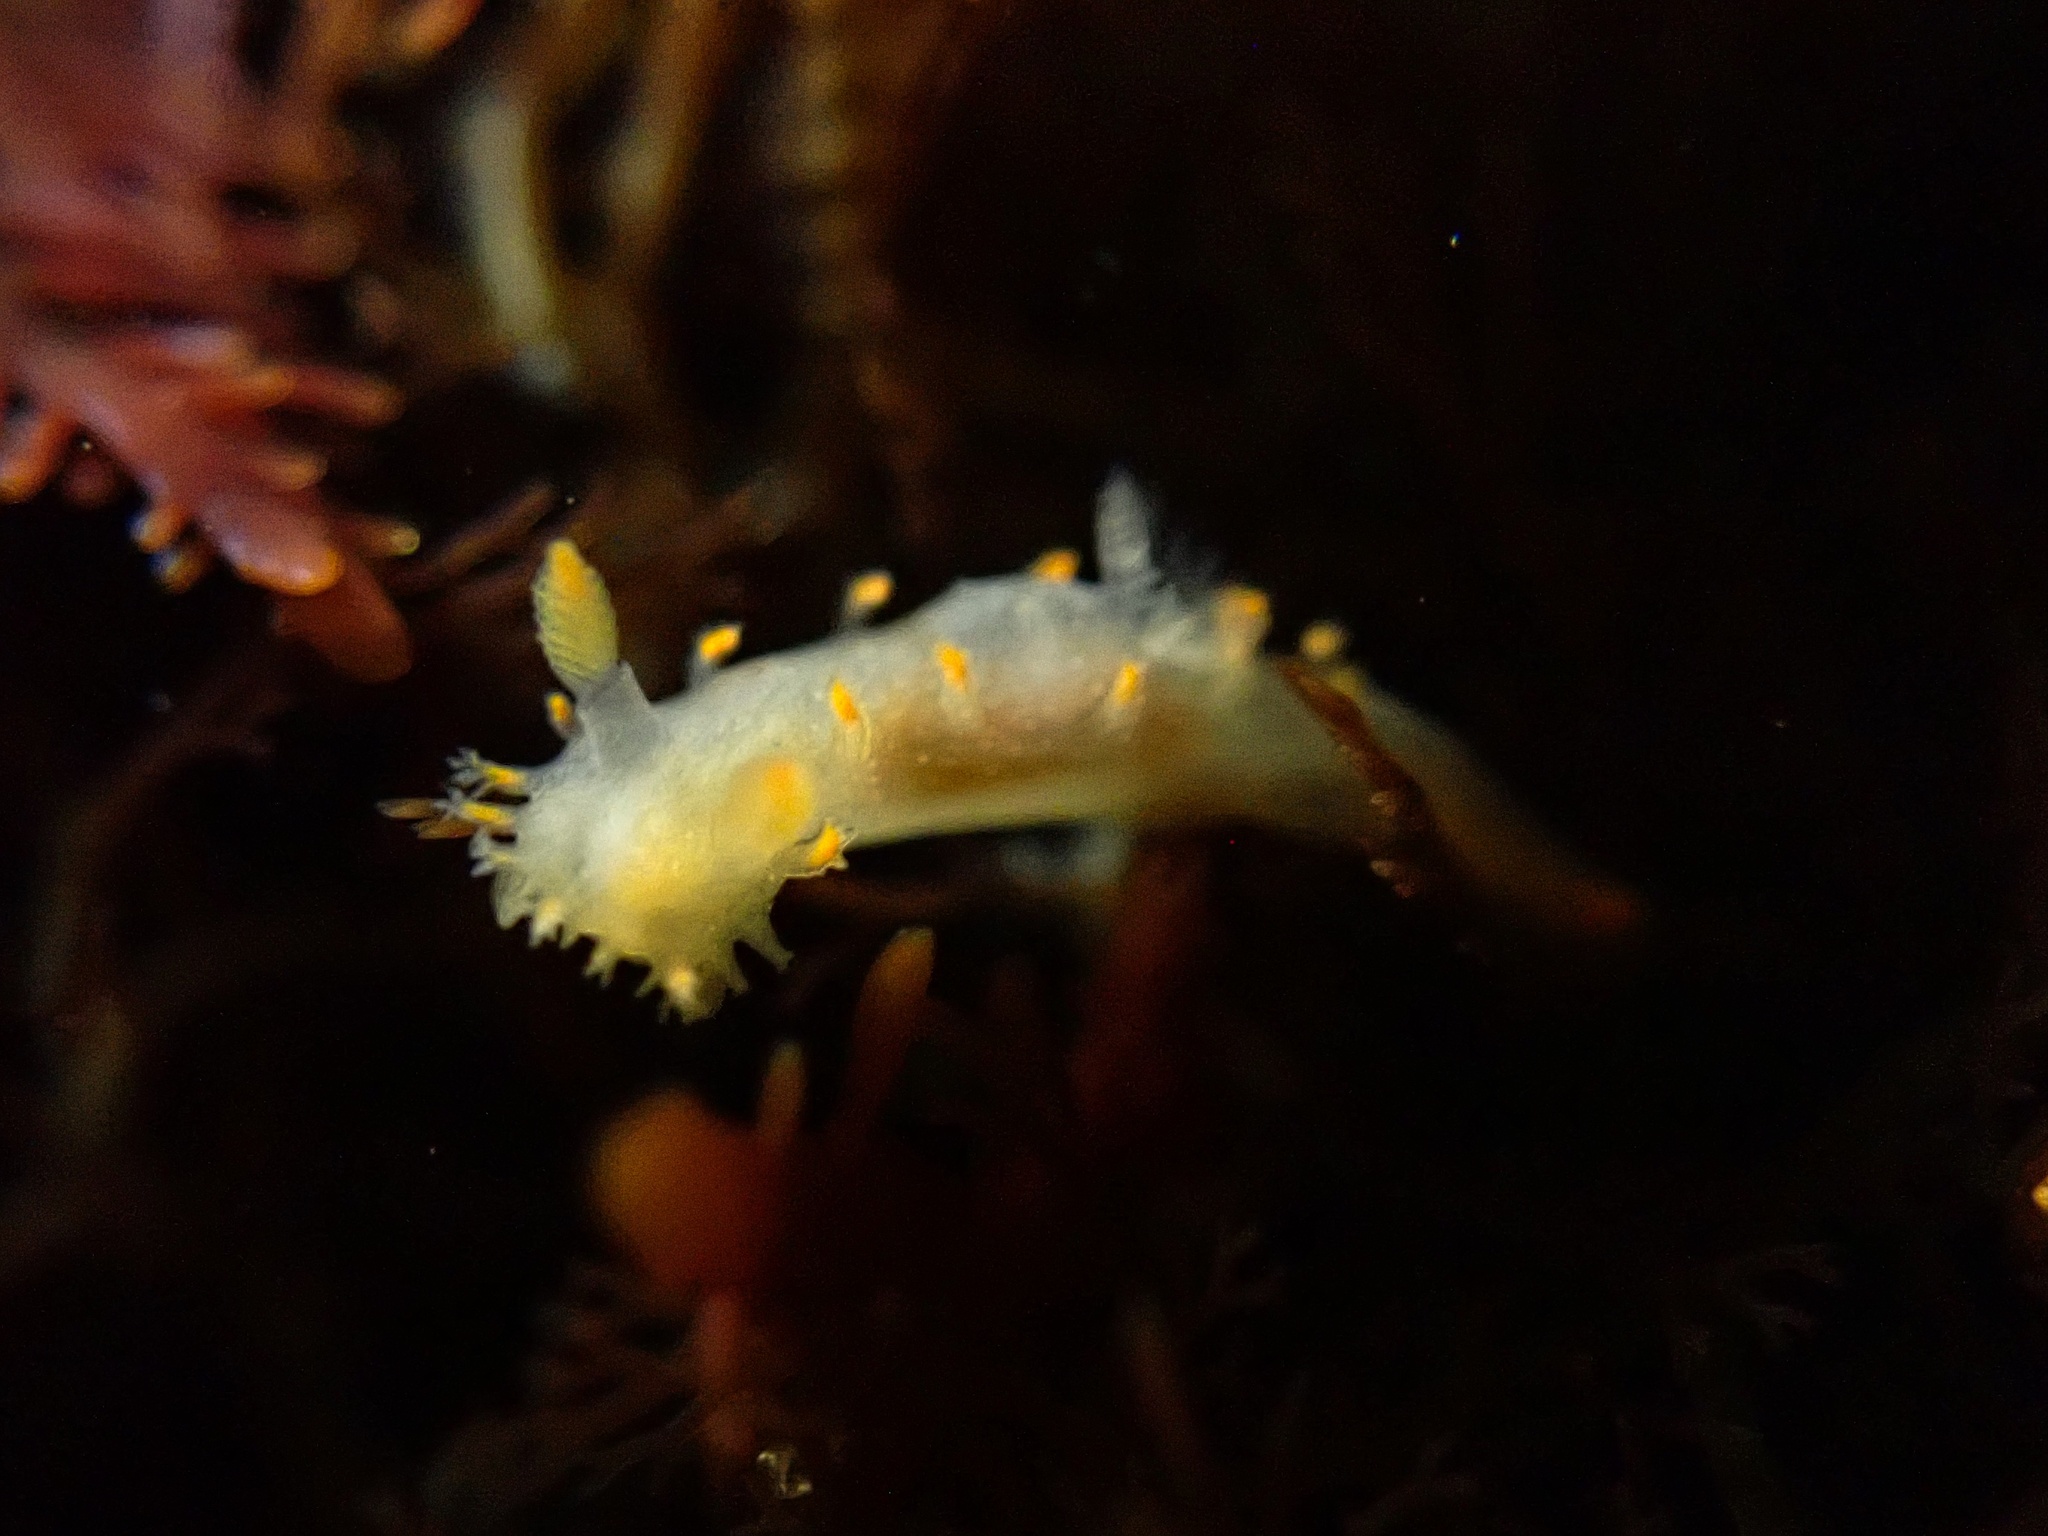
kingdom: Animalia
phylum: Mollusca
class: Gastropoda
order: Nudibranchia
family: Polyceridae
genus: Triopha
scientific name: Triopha maculata
